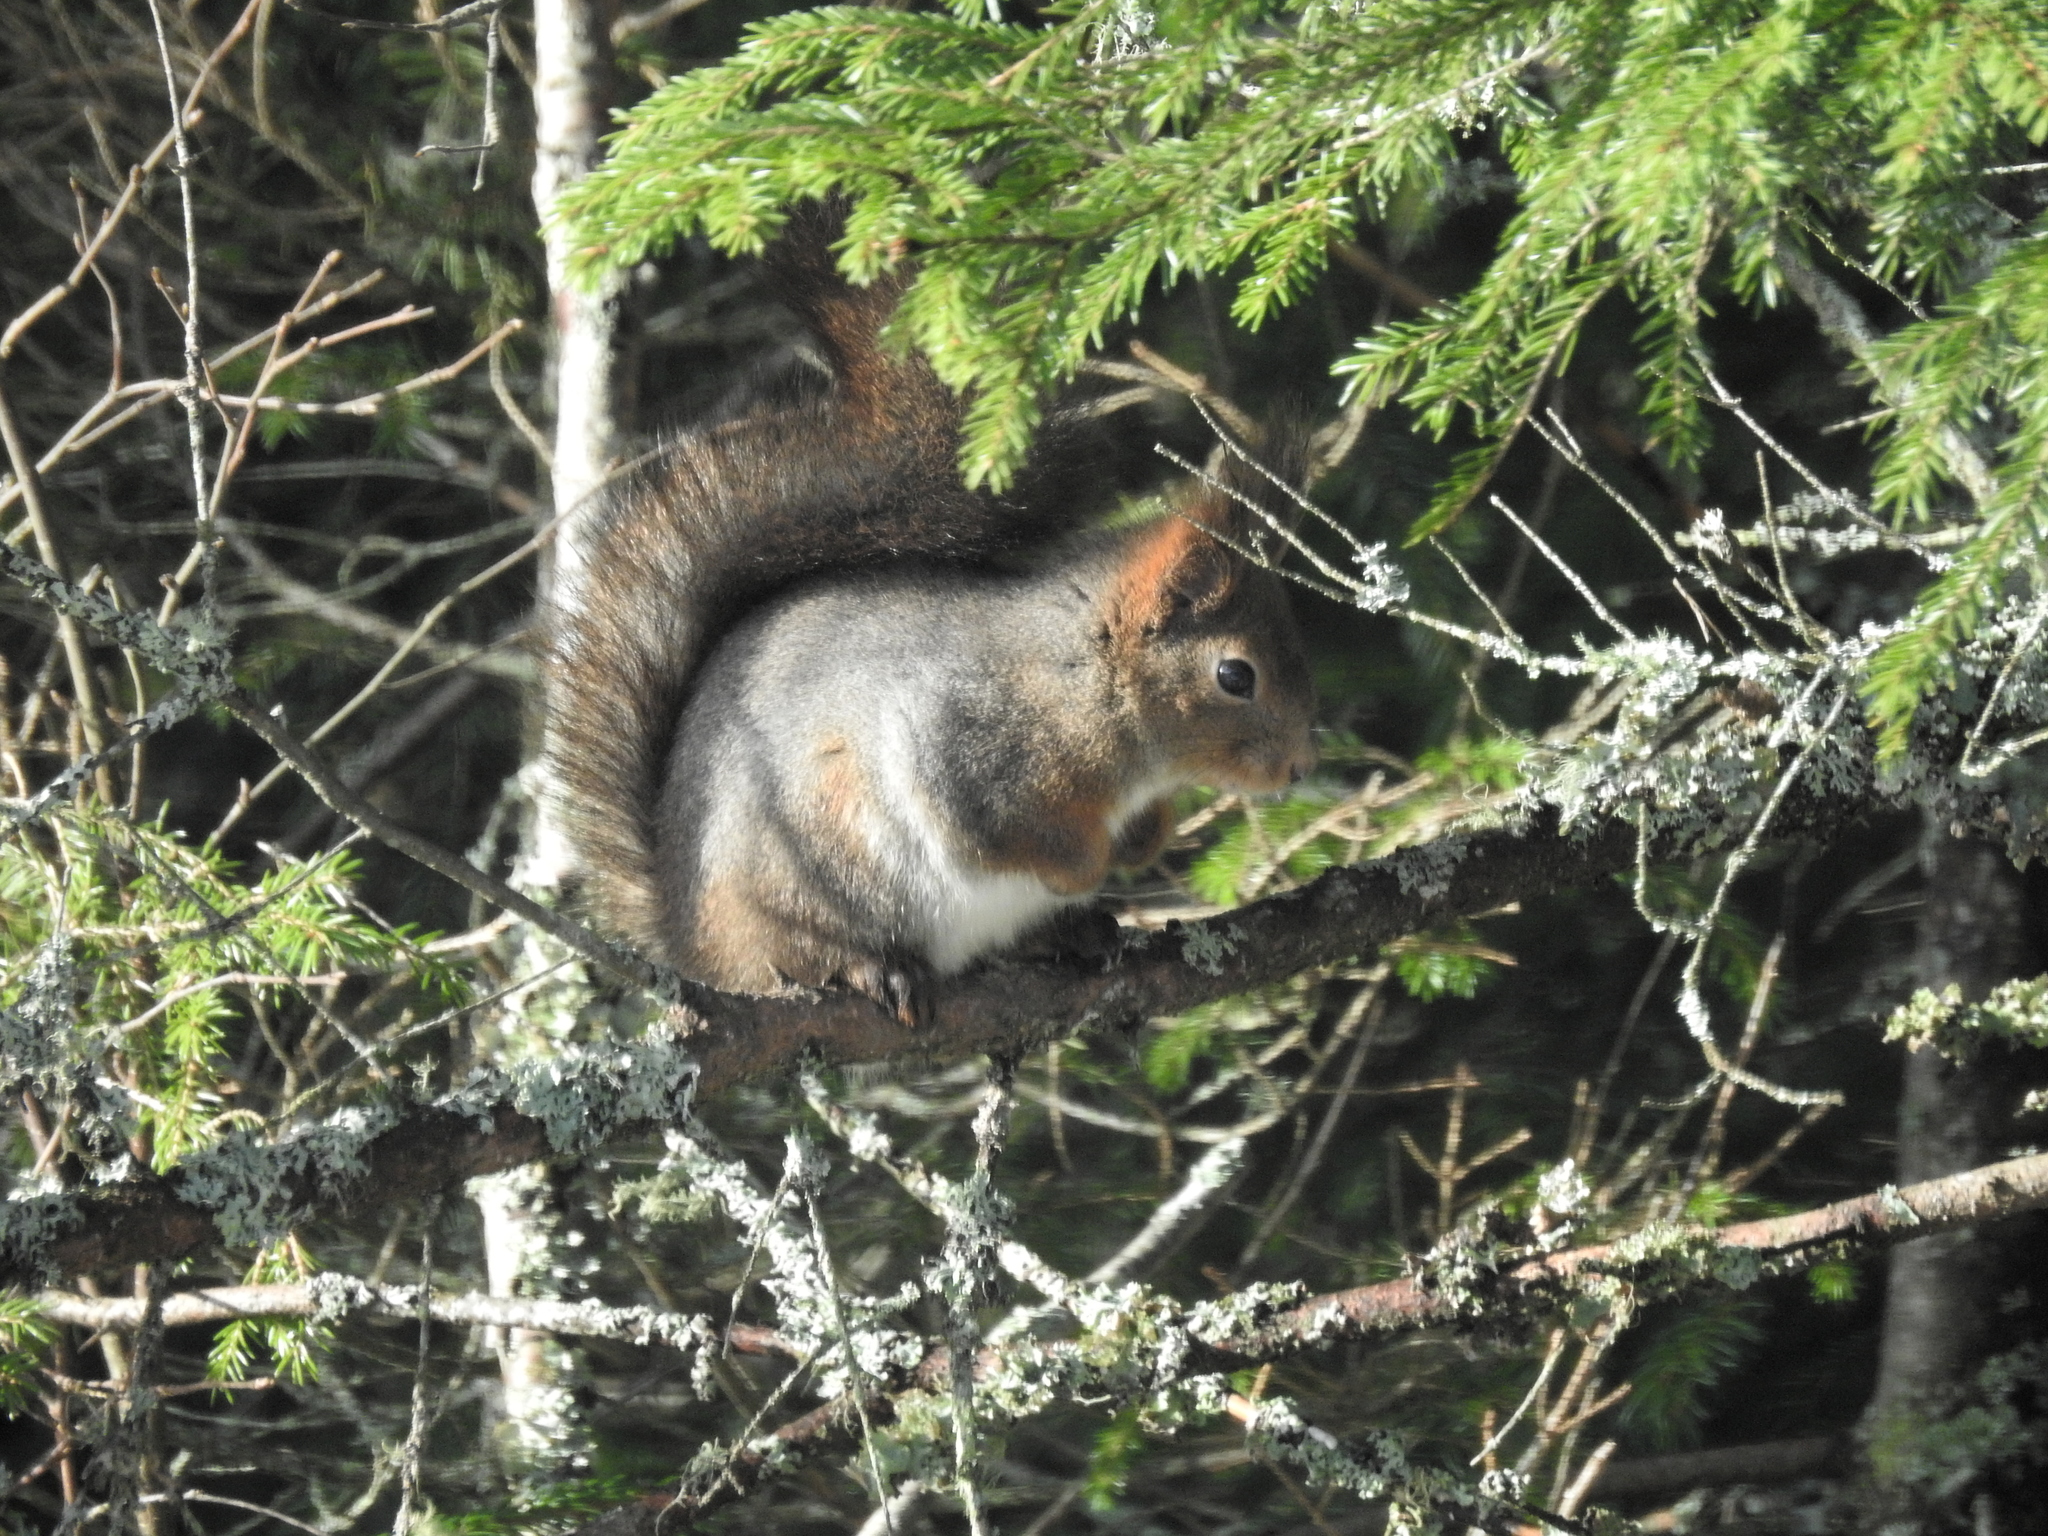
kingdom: Animalia
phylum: Chordata
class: Mammalia
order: Rodentia
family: Sciuridae
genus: Sciurus
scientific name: Sciurus vulgaris
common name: Eurasian red squirrel
